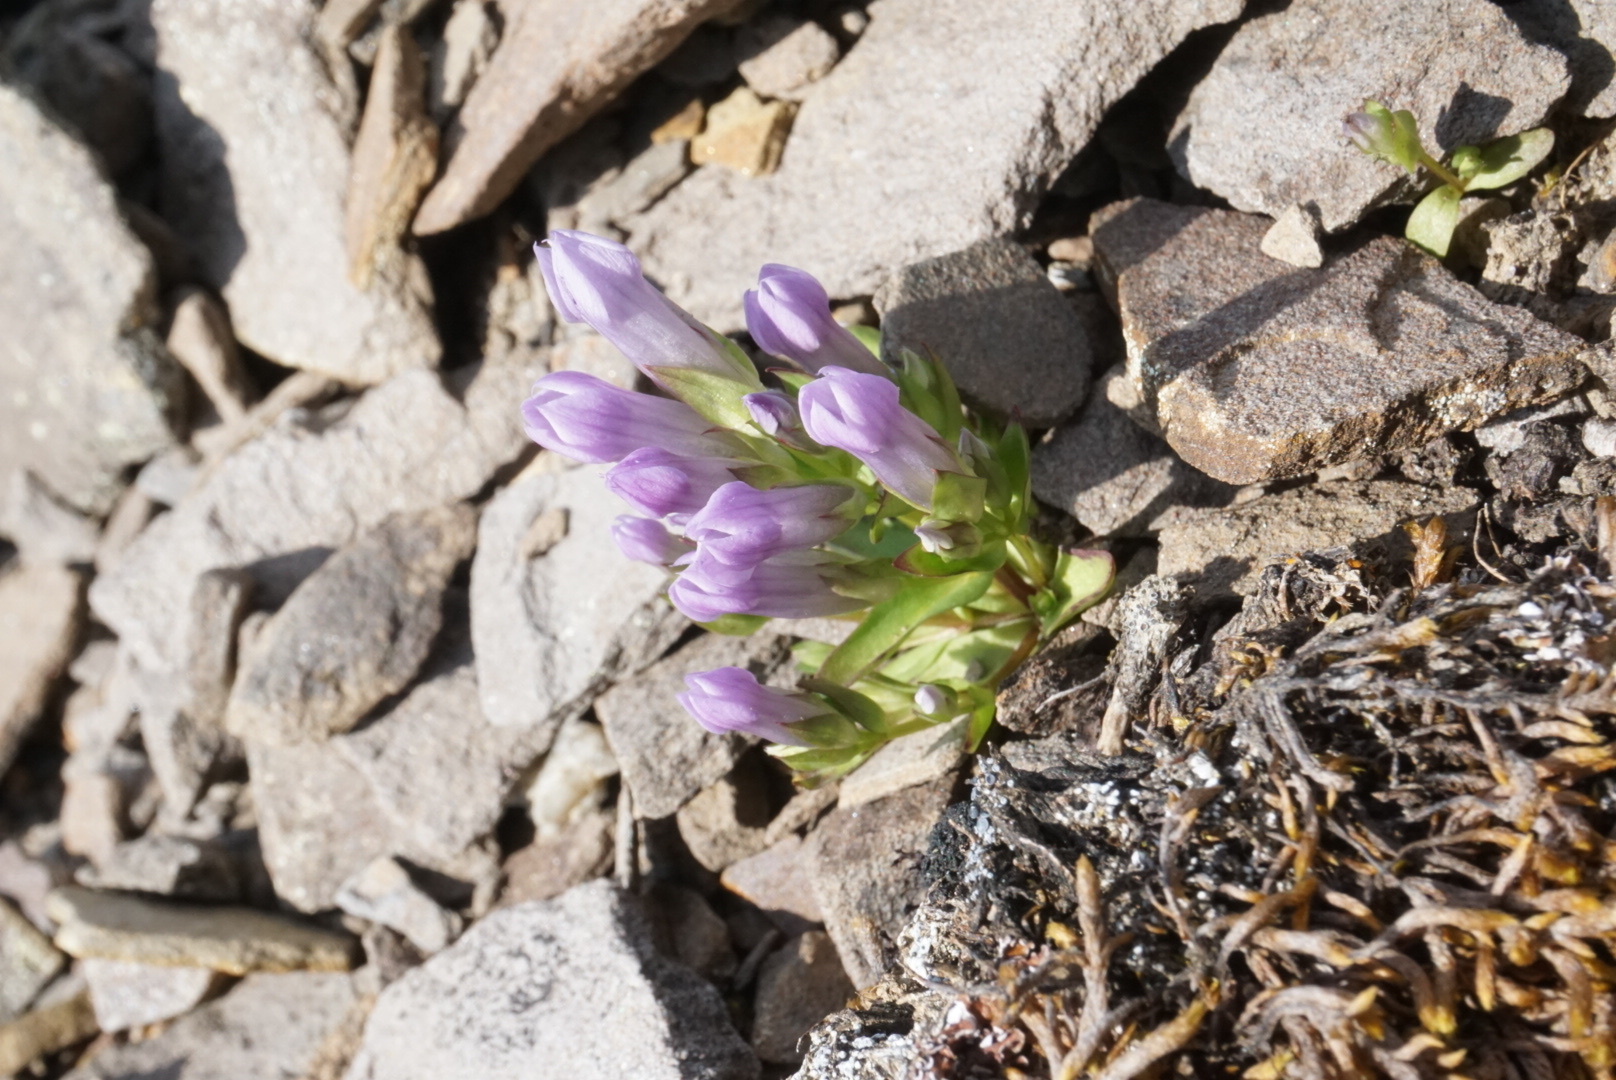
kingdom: Plantae
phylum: Tracheophyta
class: Magnoliopsida
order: Gentianales
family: Gentianaceae
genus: Gentianella
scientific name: Gentianella propinqua
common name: Four-parted dwarf-gentian
